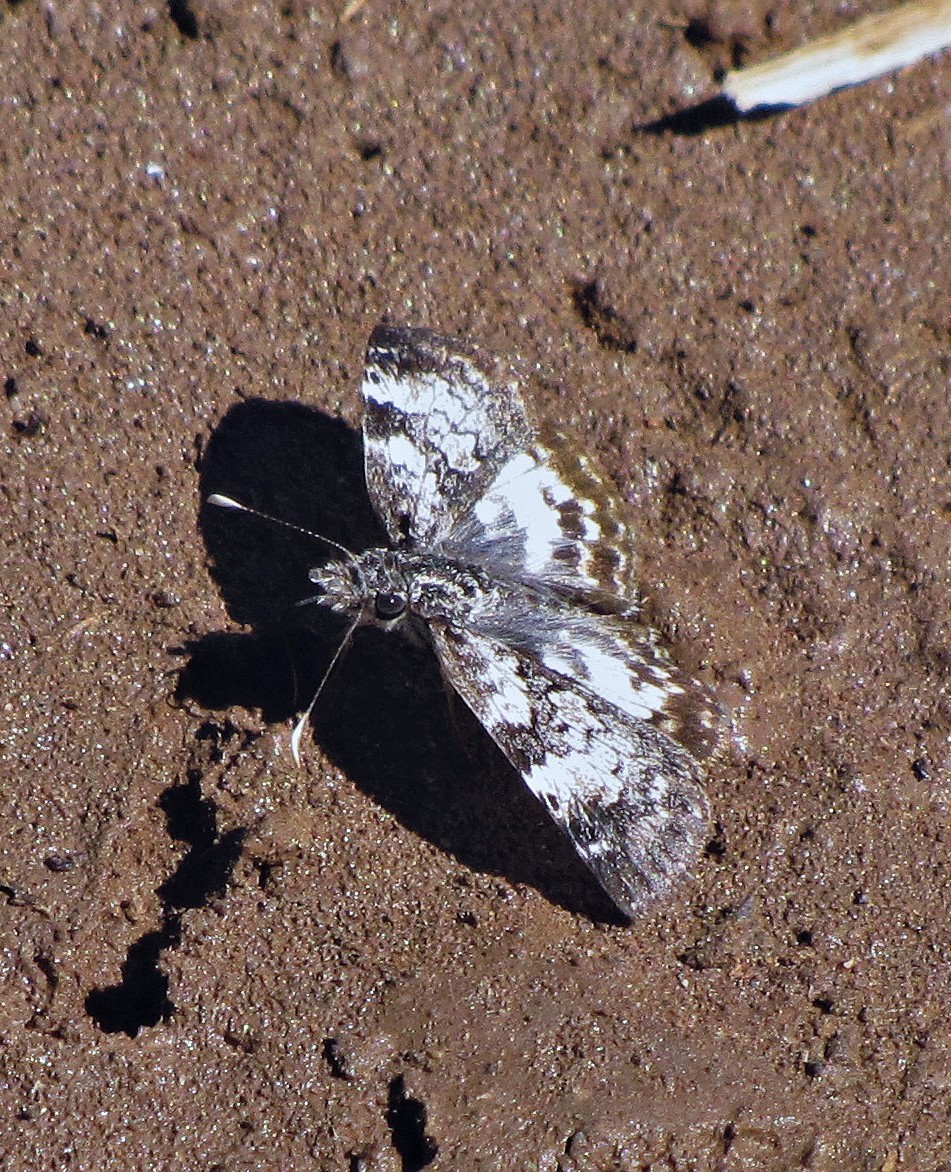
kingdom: Animalia
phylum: Arthropoda
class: Insecta
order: Lepidoptera
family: Hesperiidae
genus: Chiomara
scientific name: Chiomara asychis
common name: White-patterned skipper
